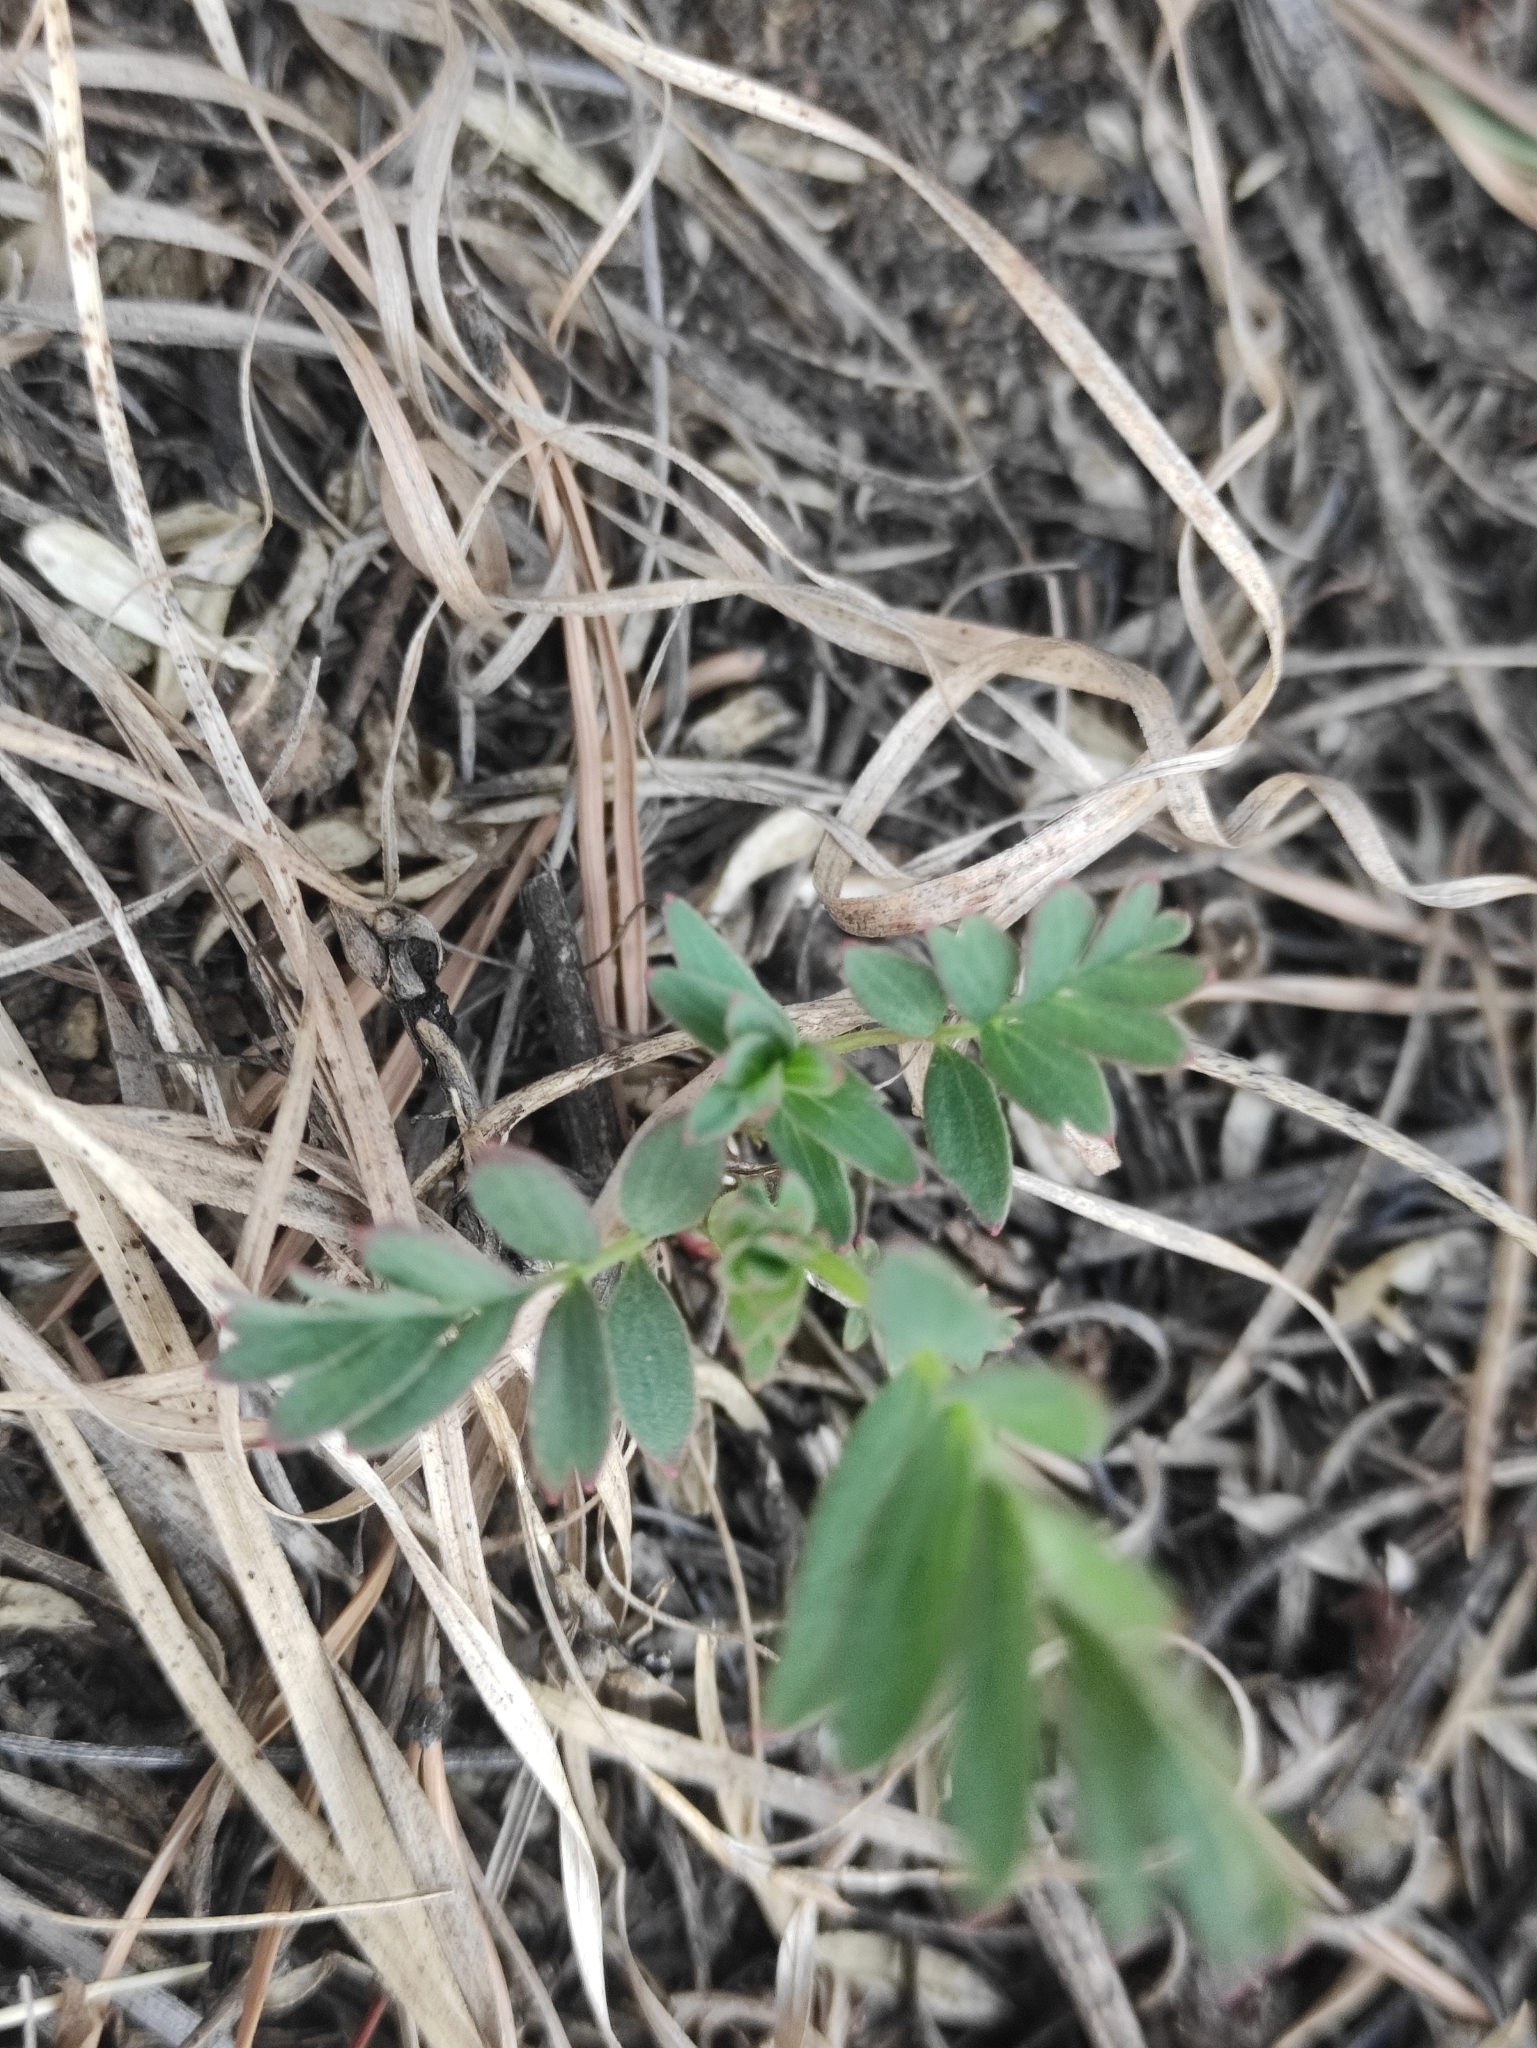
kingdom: Plantae
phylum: Tracheophyta
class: Magnoliopsida
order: Rosales
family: Rosaceae
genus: Sibbaldianthe
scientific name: Sibbaldianthe bifurca
